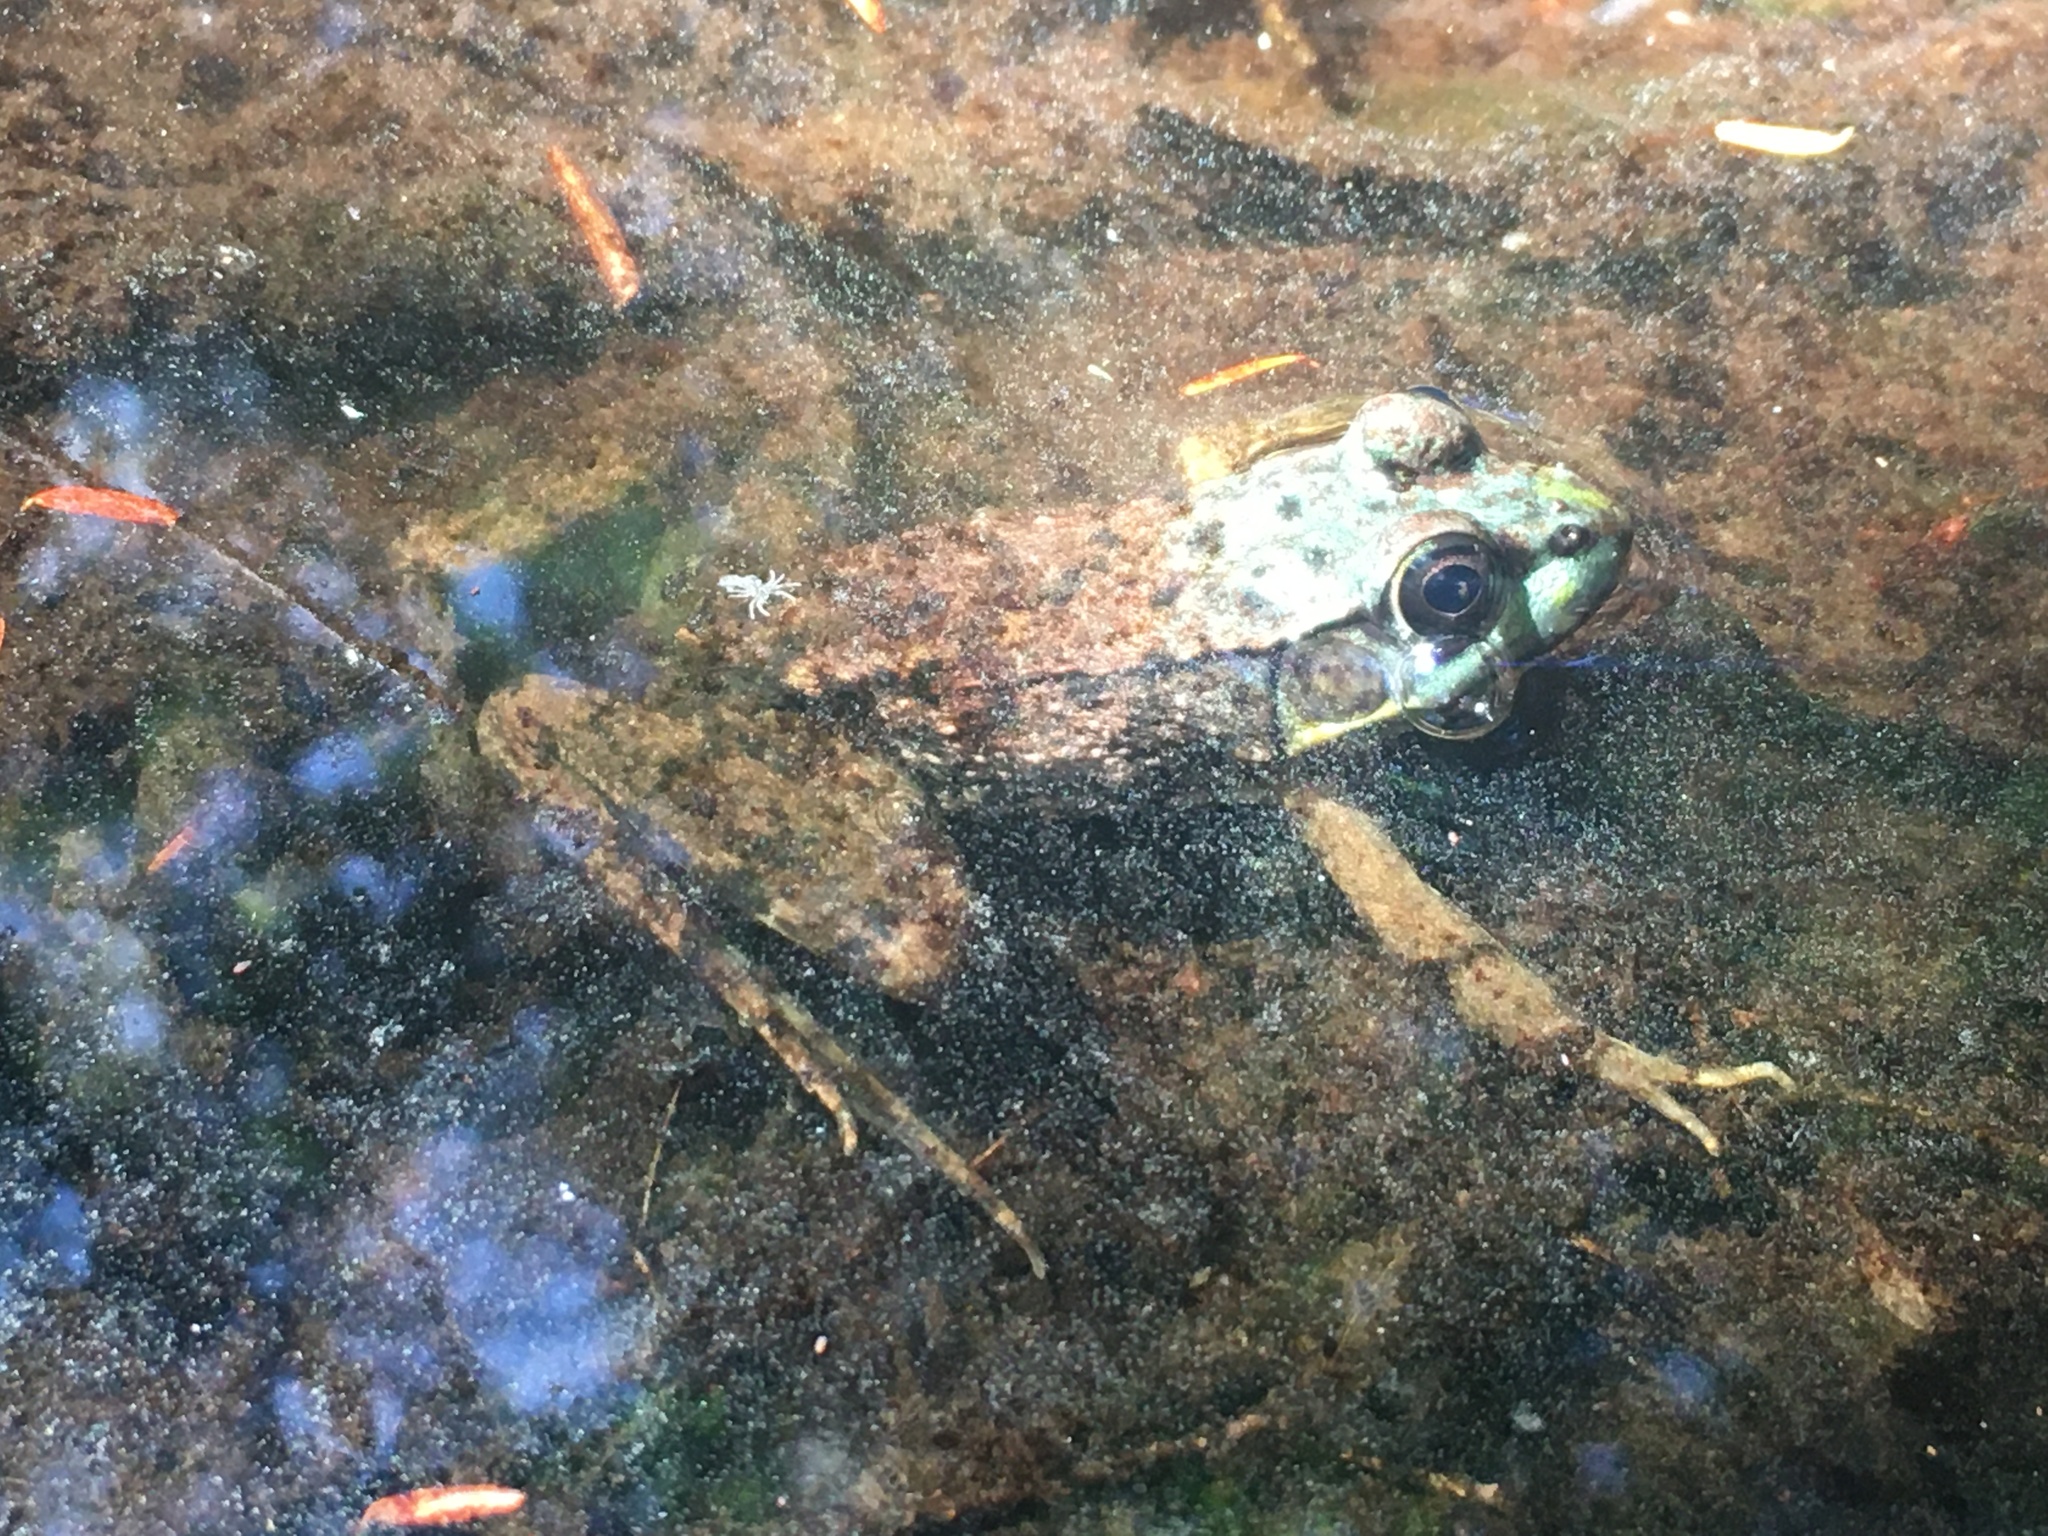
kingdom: Animalia
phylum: Chordata
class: Amphibia
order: Anura
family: Ranidae
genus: Lithobates
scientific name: Lithobates clamitans
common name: Green frog
